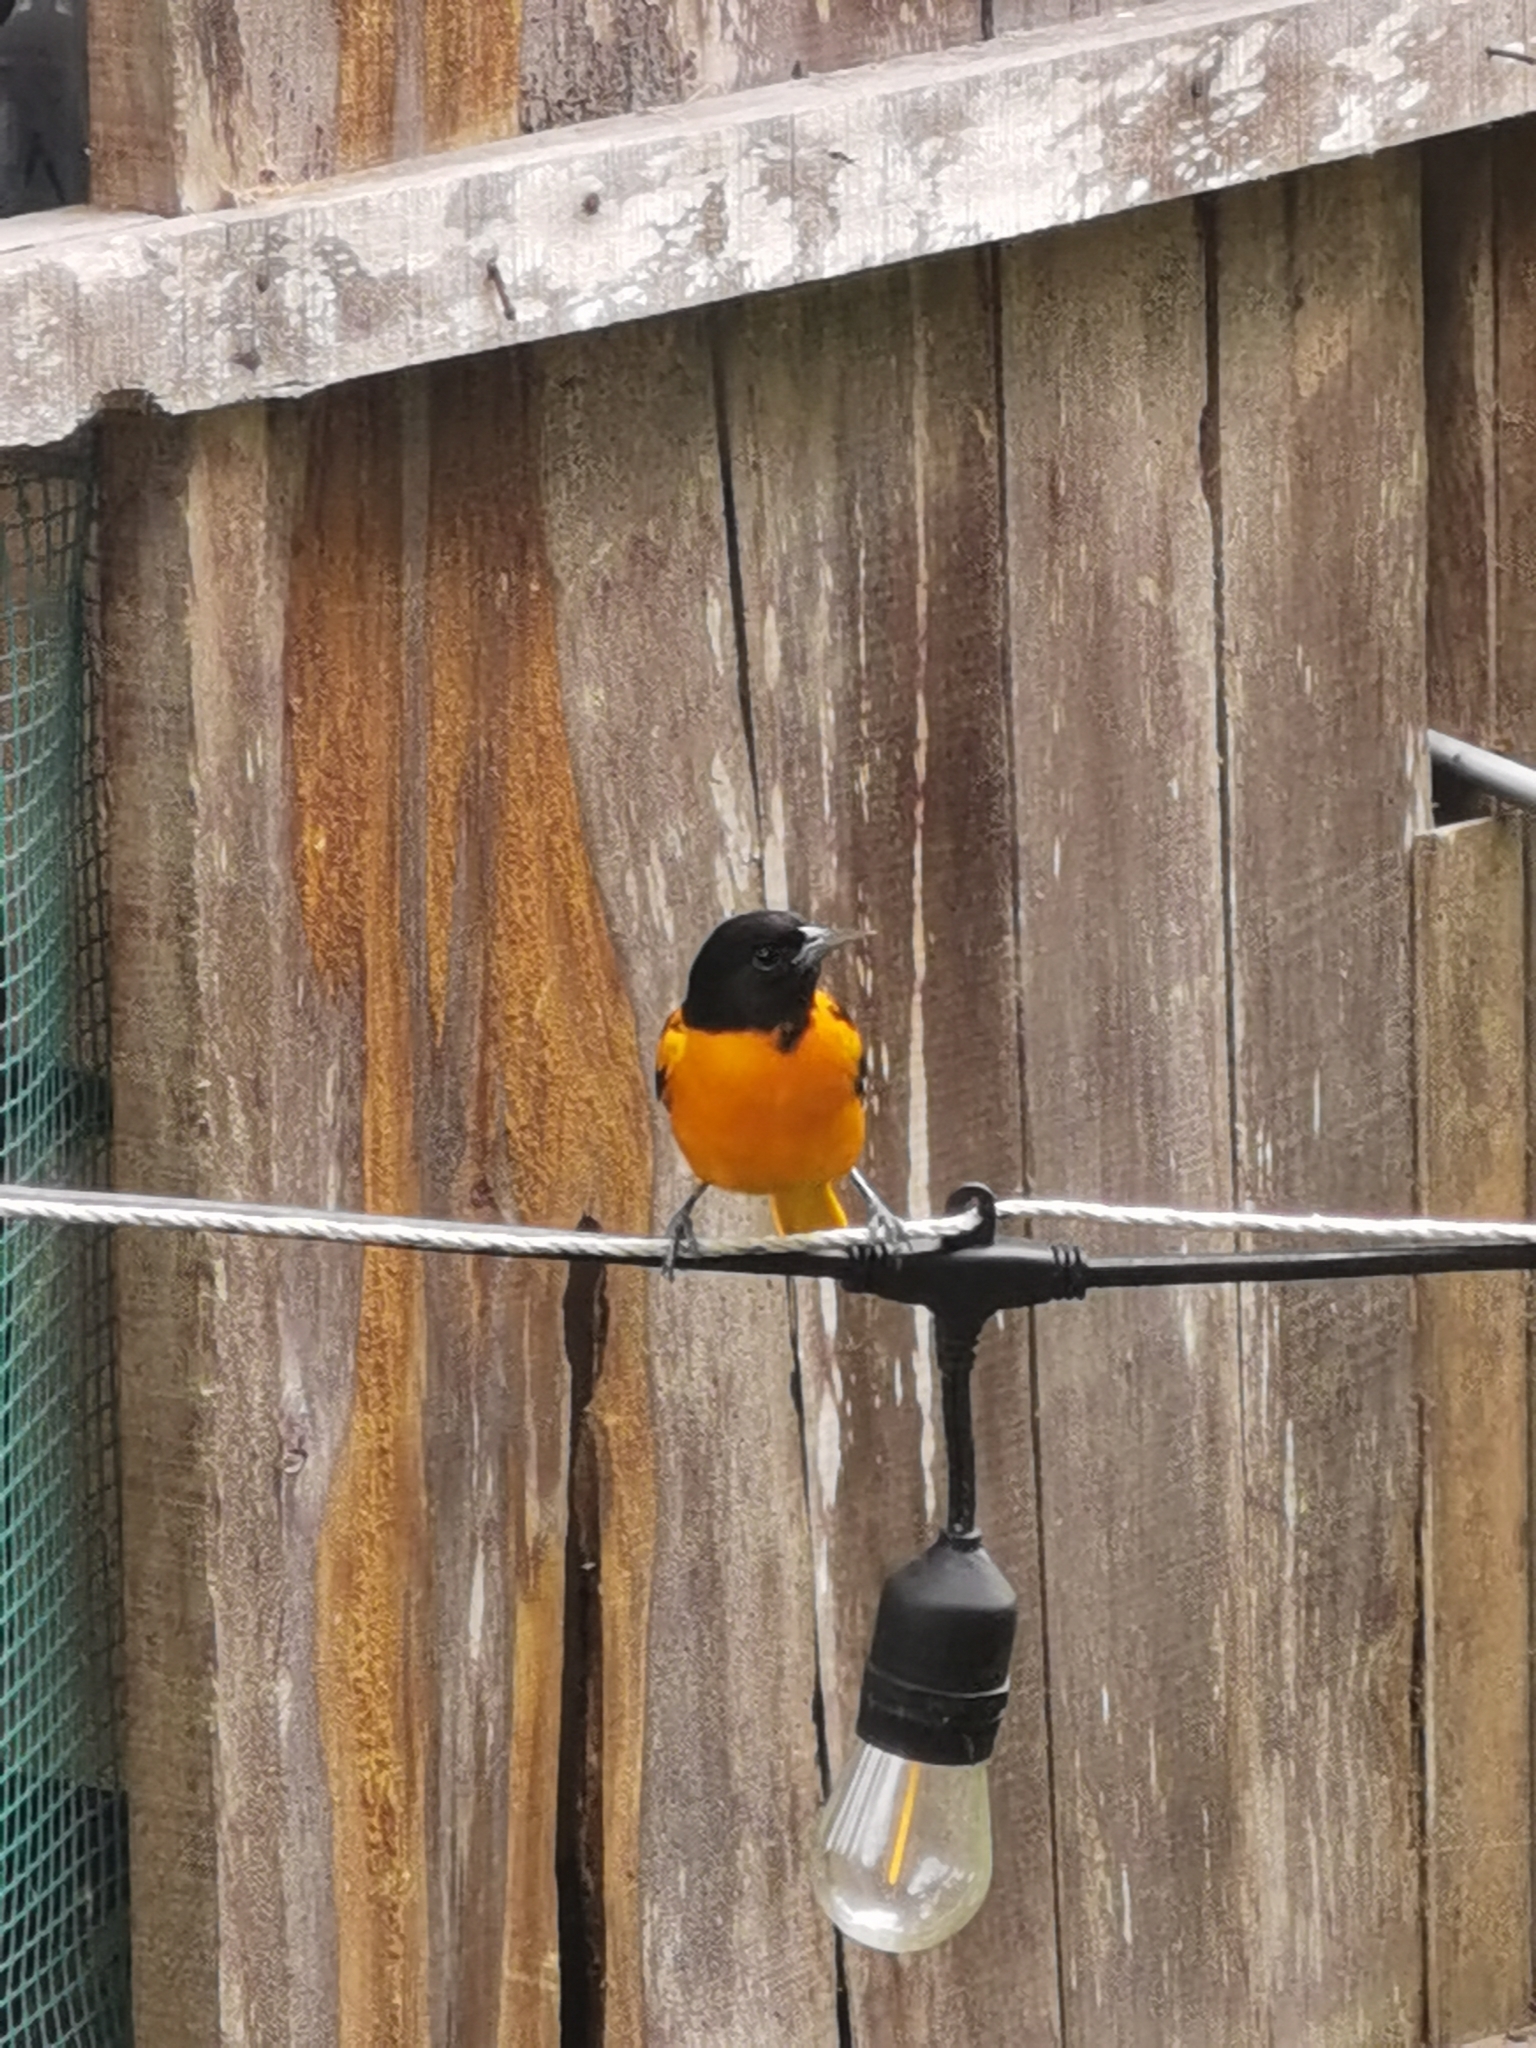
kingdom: Animalia
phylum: Chordata
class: Aves
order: Passeriformes
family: Icteridae
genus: Icterus
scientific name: Icterus galbula
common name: Baltimore oriole
